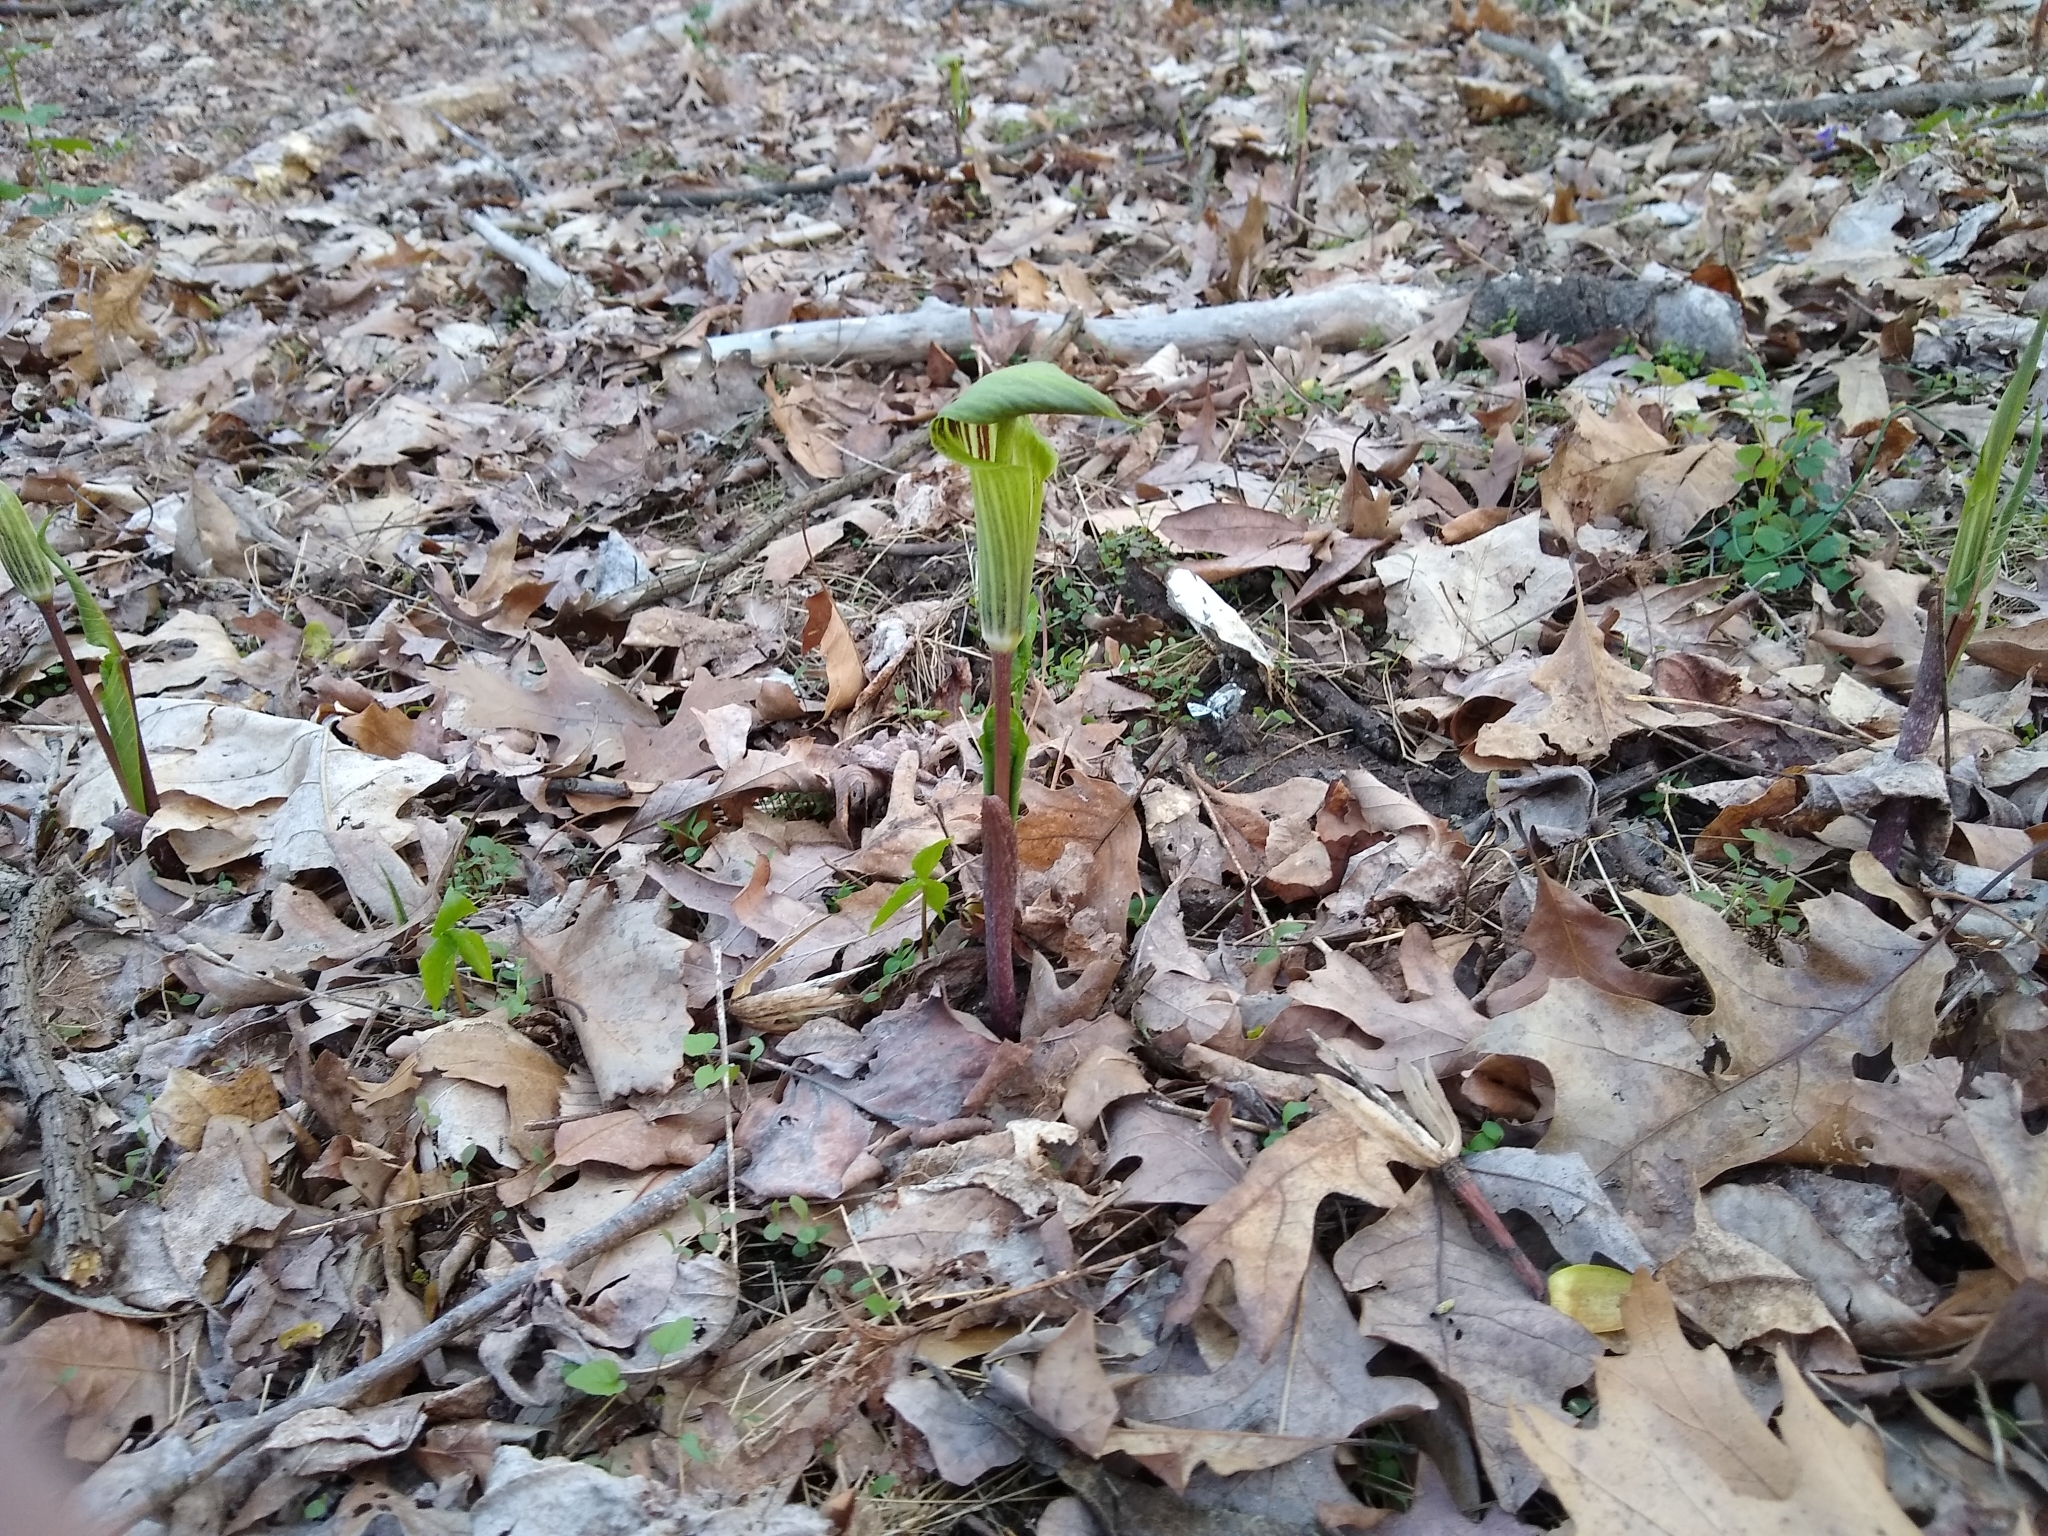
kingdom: Plantae
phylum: Tracheophyta
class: Liliopsida
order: Alismatales
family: Araceae
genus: Arisaema
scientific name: Arisaema triphyllum
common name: Jack-in-the-pulpit
